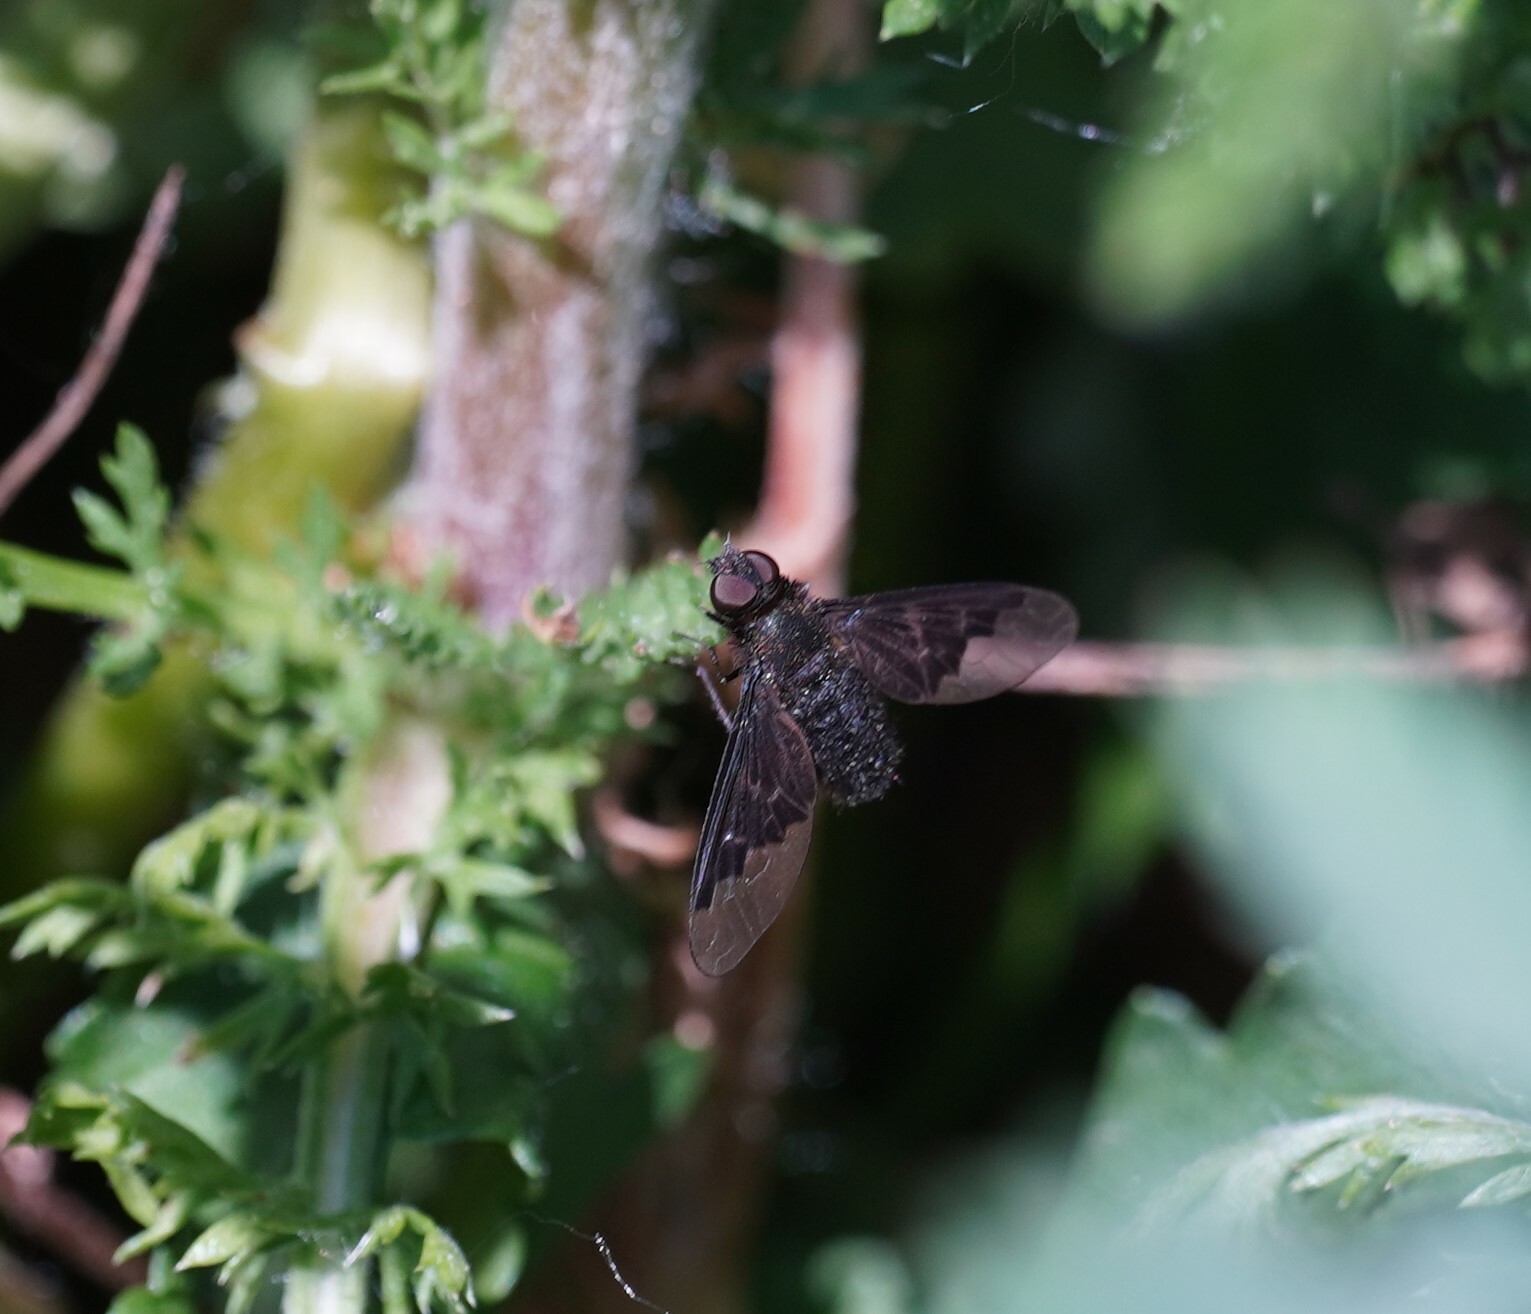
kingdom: Animalia
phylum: Arthropoda
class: Insecta
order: Diptera
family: Bombyliidae
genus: Hemipenthes
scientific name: Hemipenthes morio
